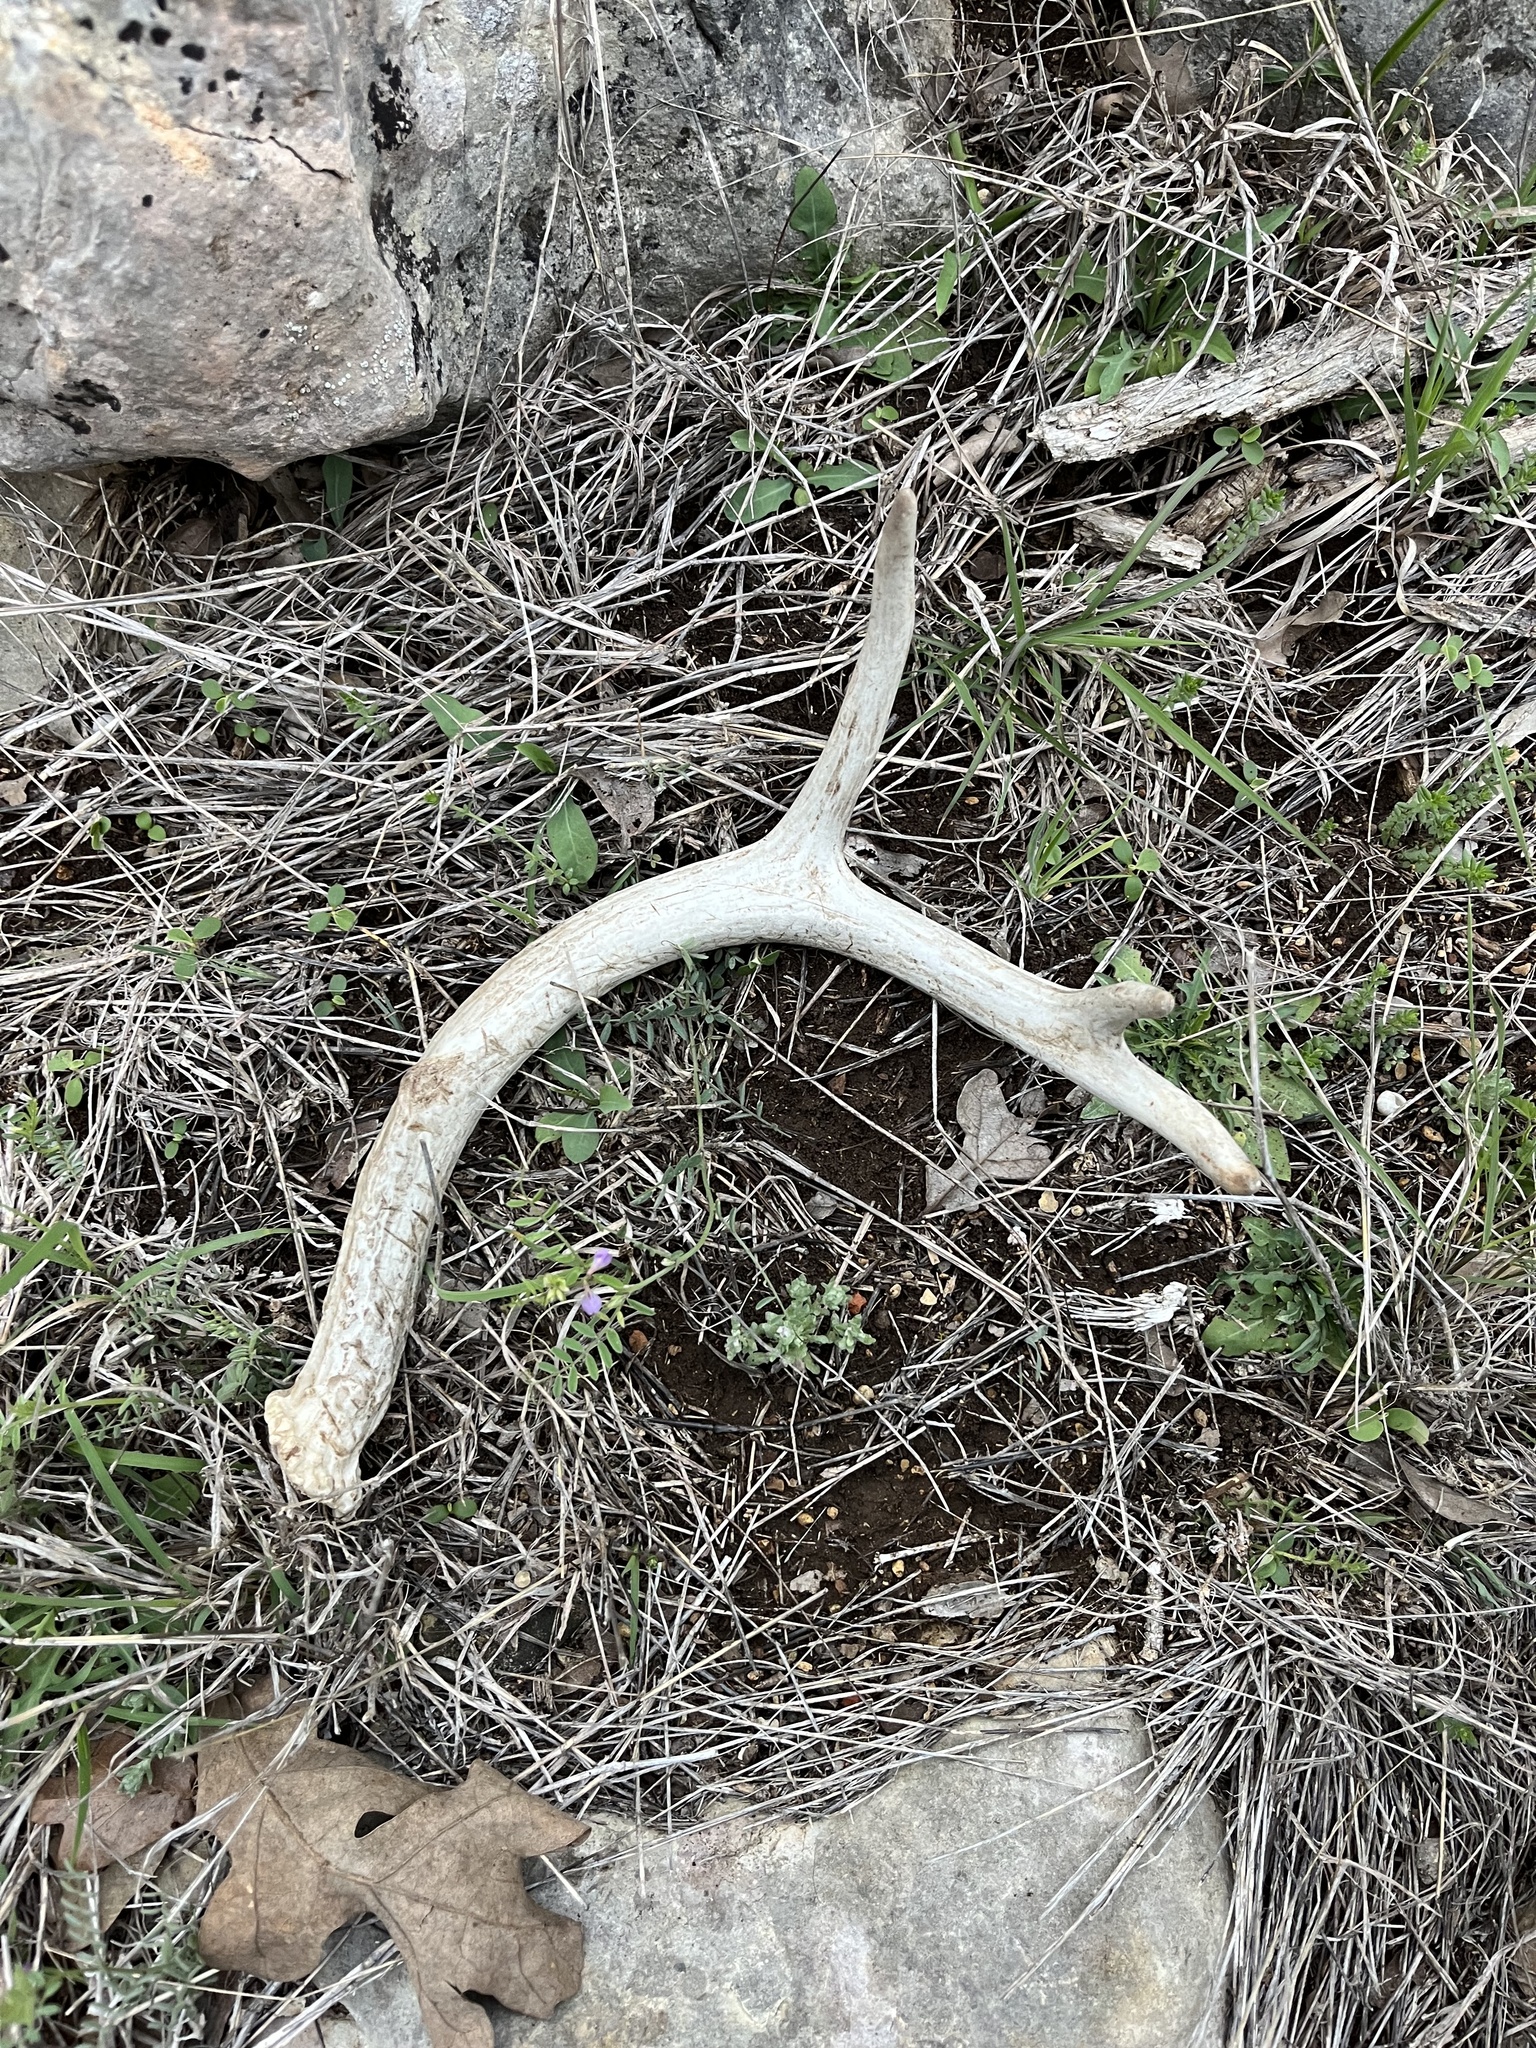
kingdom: Animalia
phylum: Chordata
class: Mammalia
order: Artiodactyla
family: Cervidae
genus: Odocoileus
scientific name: Odocoileus virginianus
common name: White-tailed deer
